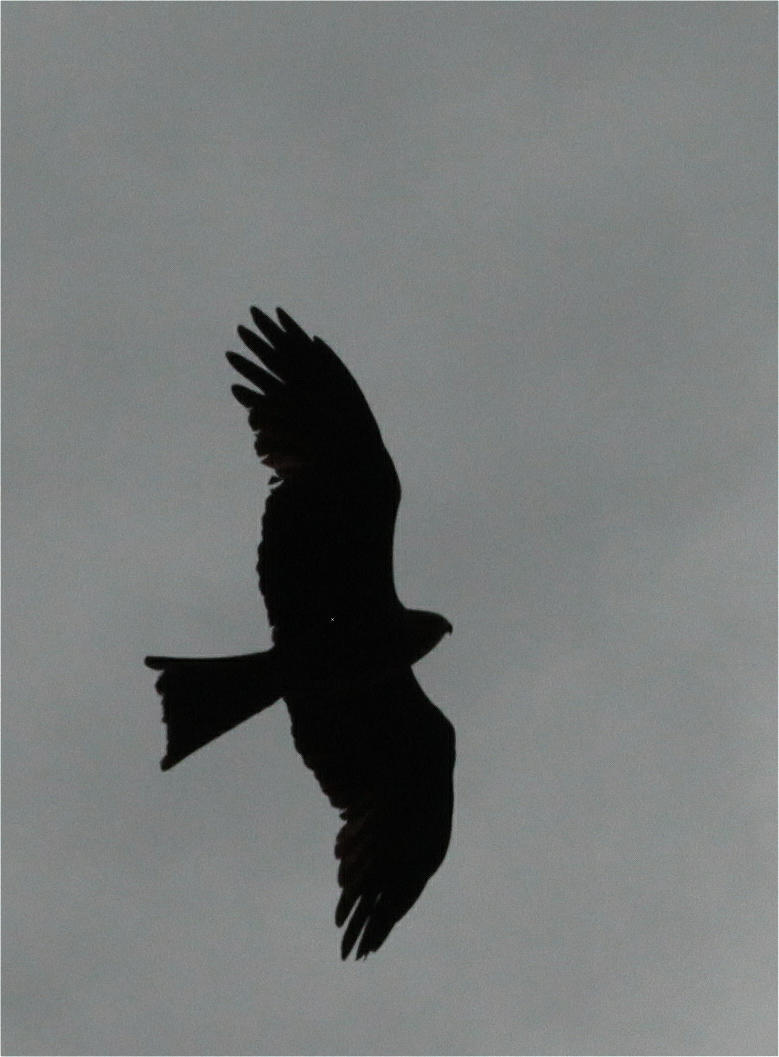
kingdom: Animalia
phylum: Chordata
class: Aves
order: Accipitriformes
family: Accipitridae
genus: Milvus
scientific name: Milvus migrans
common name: Black kite
